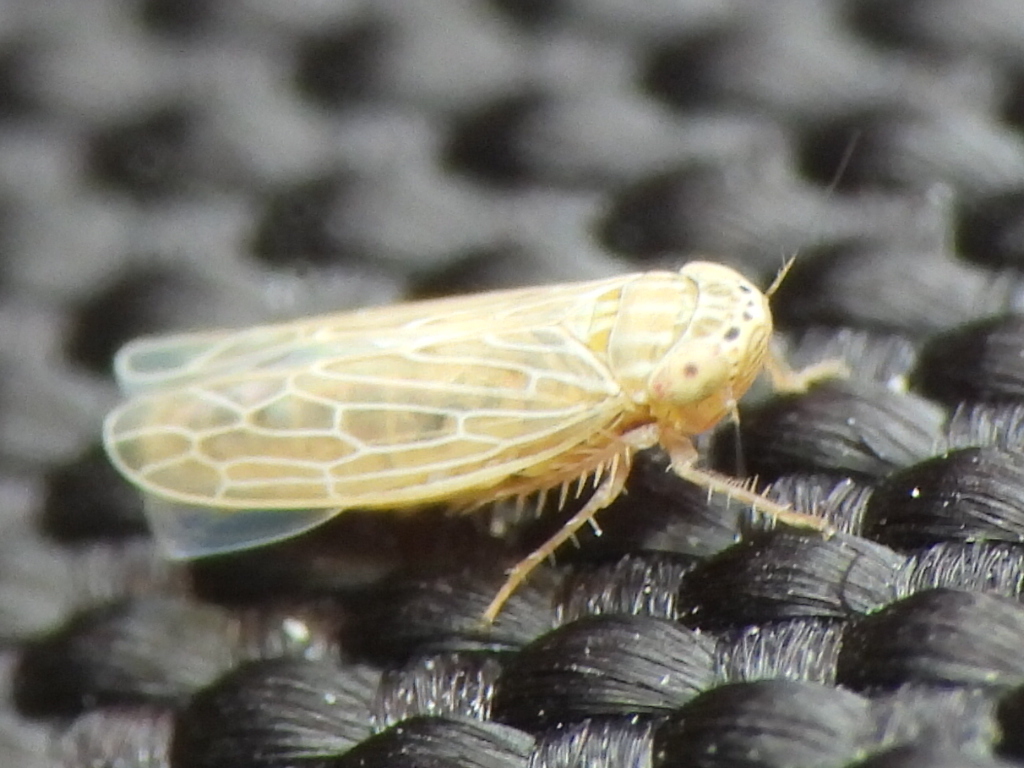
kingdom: Animalia
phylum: Arthropoda
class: Insecta
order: Hemiptera
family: Cicadellidae
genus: Graminella
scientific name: Graminella sonora
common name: Lesser lawn leafhopper
